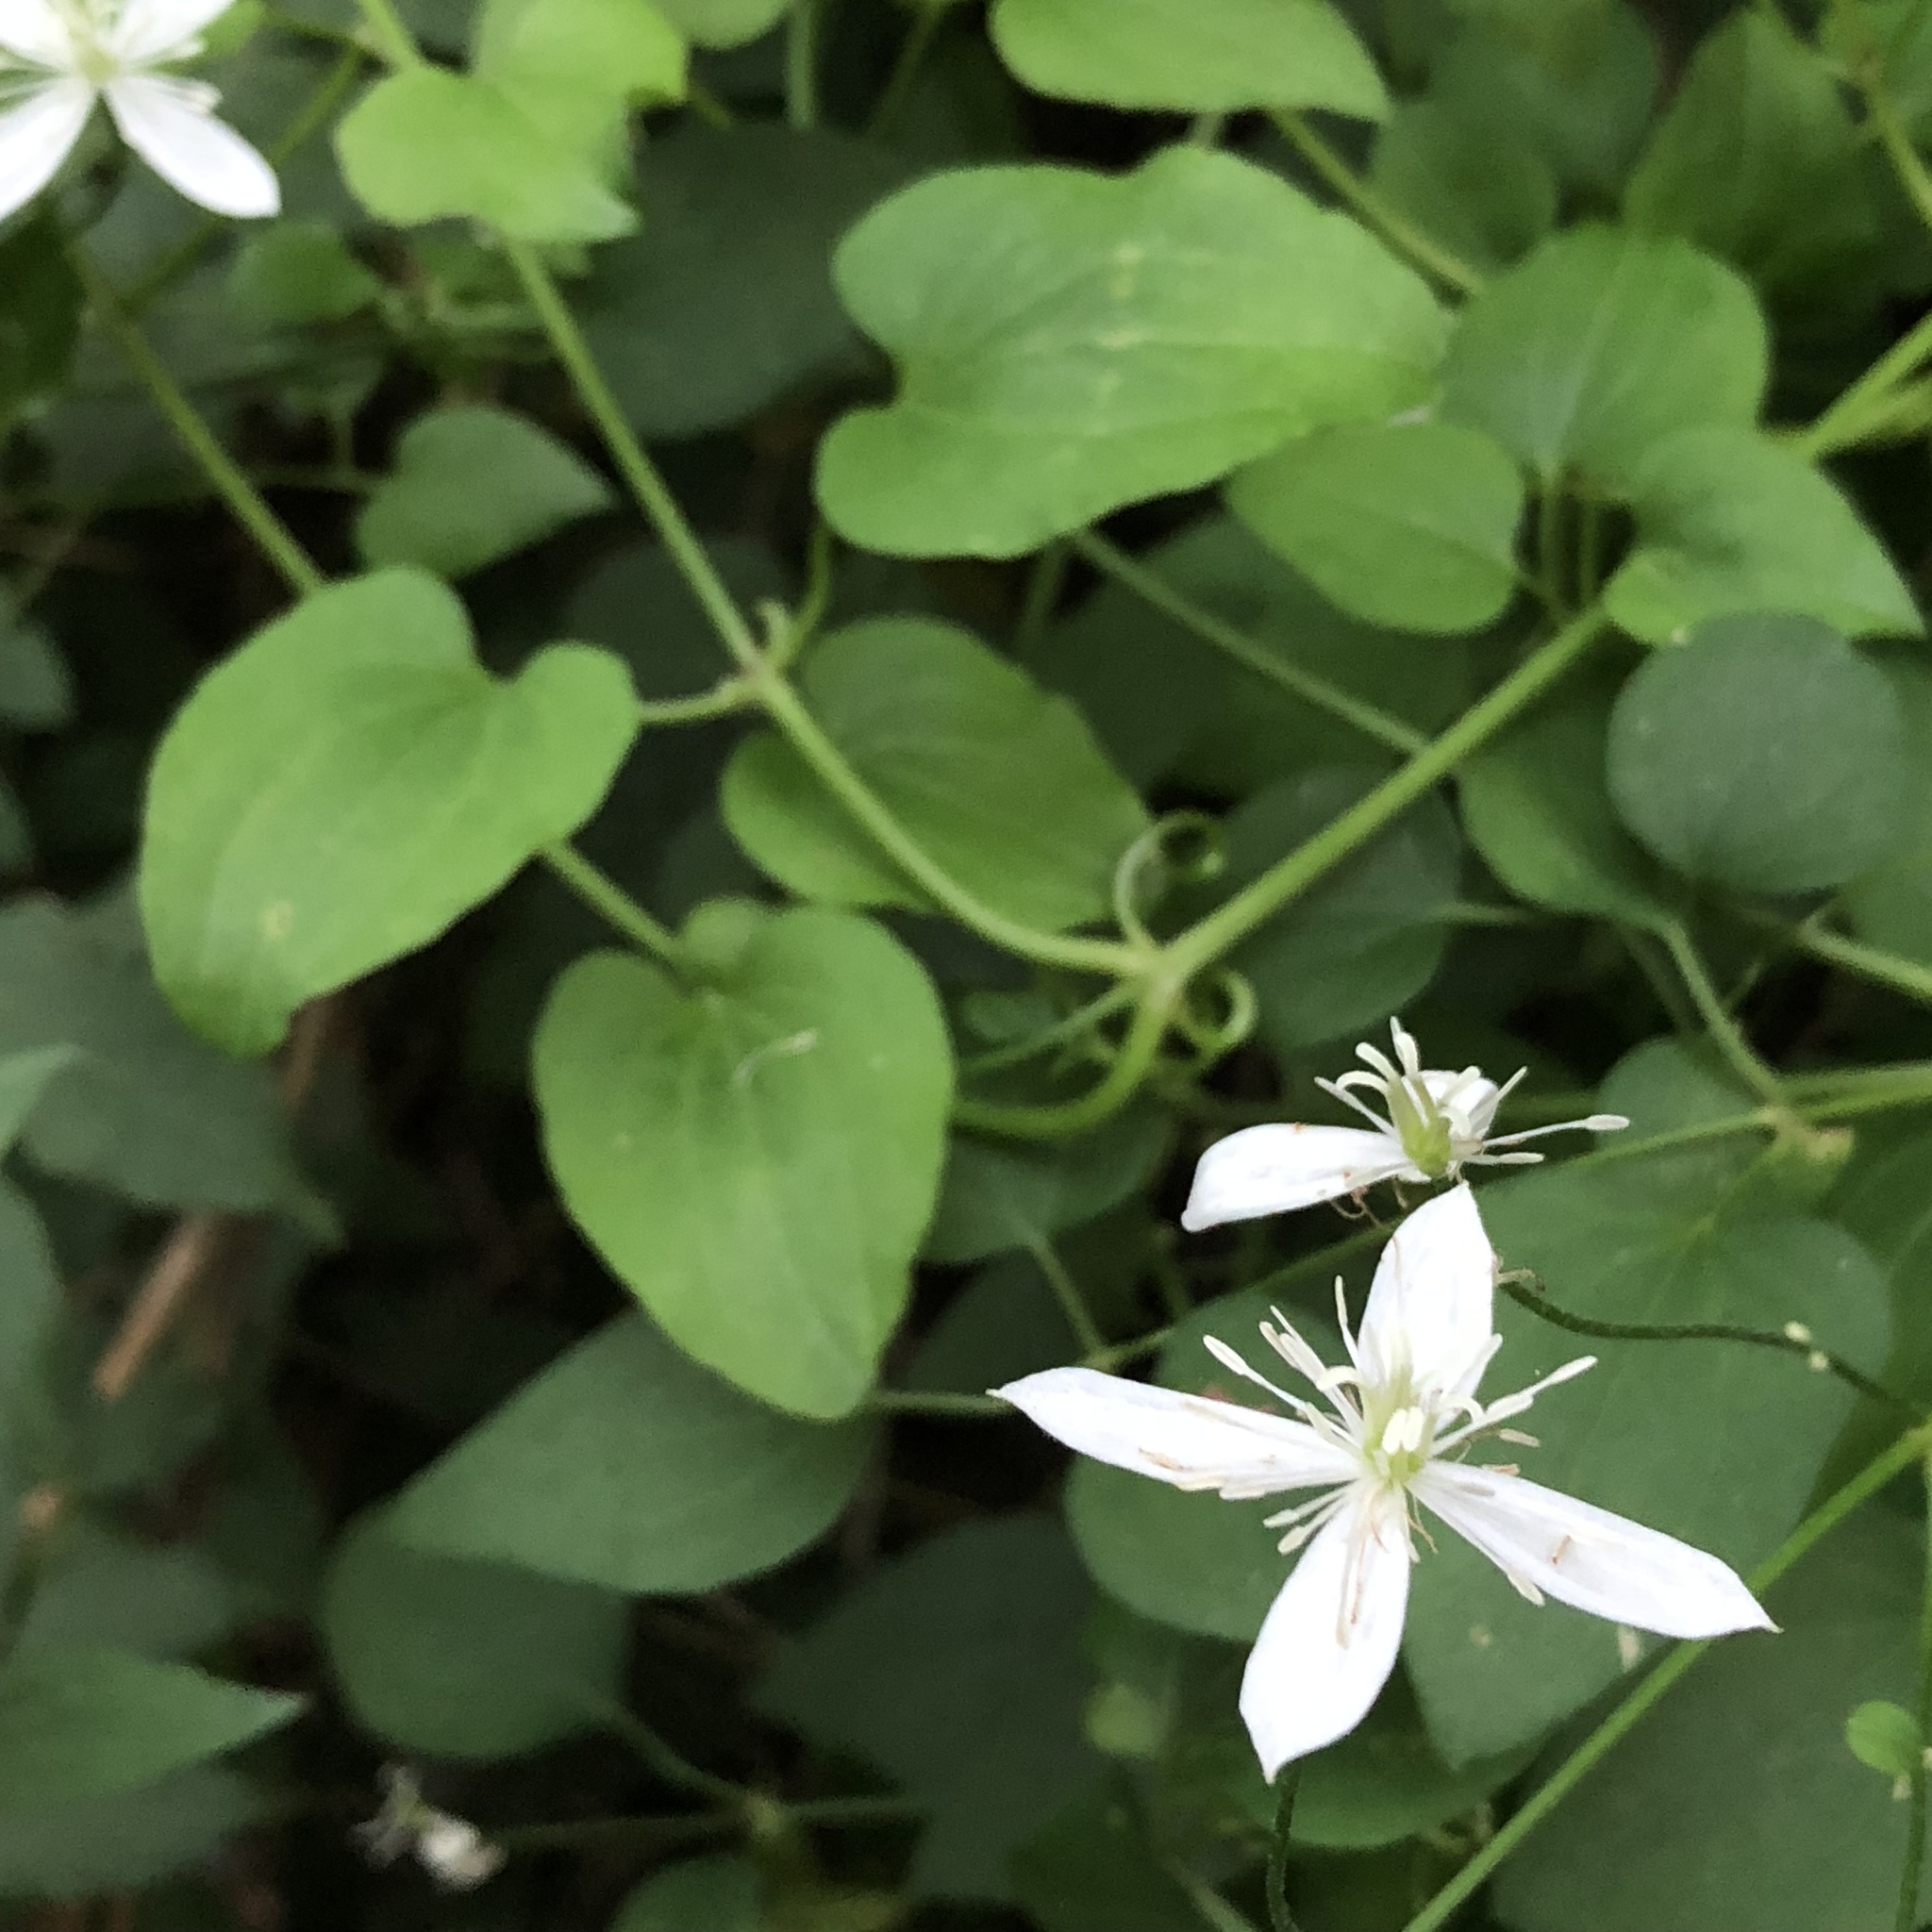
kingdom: Plantae
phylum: Tracheophyta
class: Magnoliopsida
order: Ranunculales
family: Ranunculaceae
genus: Clematis
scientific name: Clematis terniflora
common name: Sweet autumn clematis
